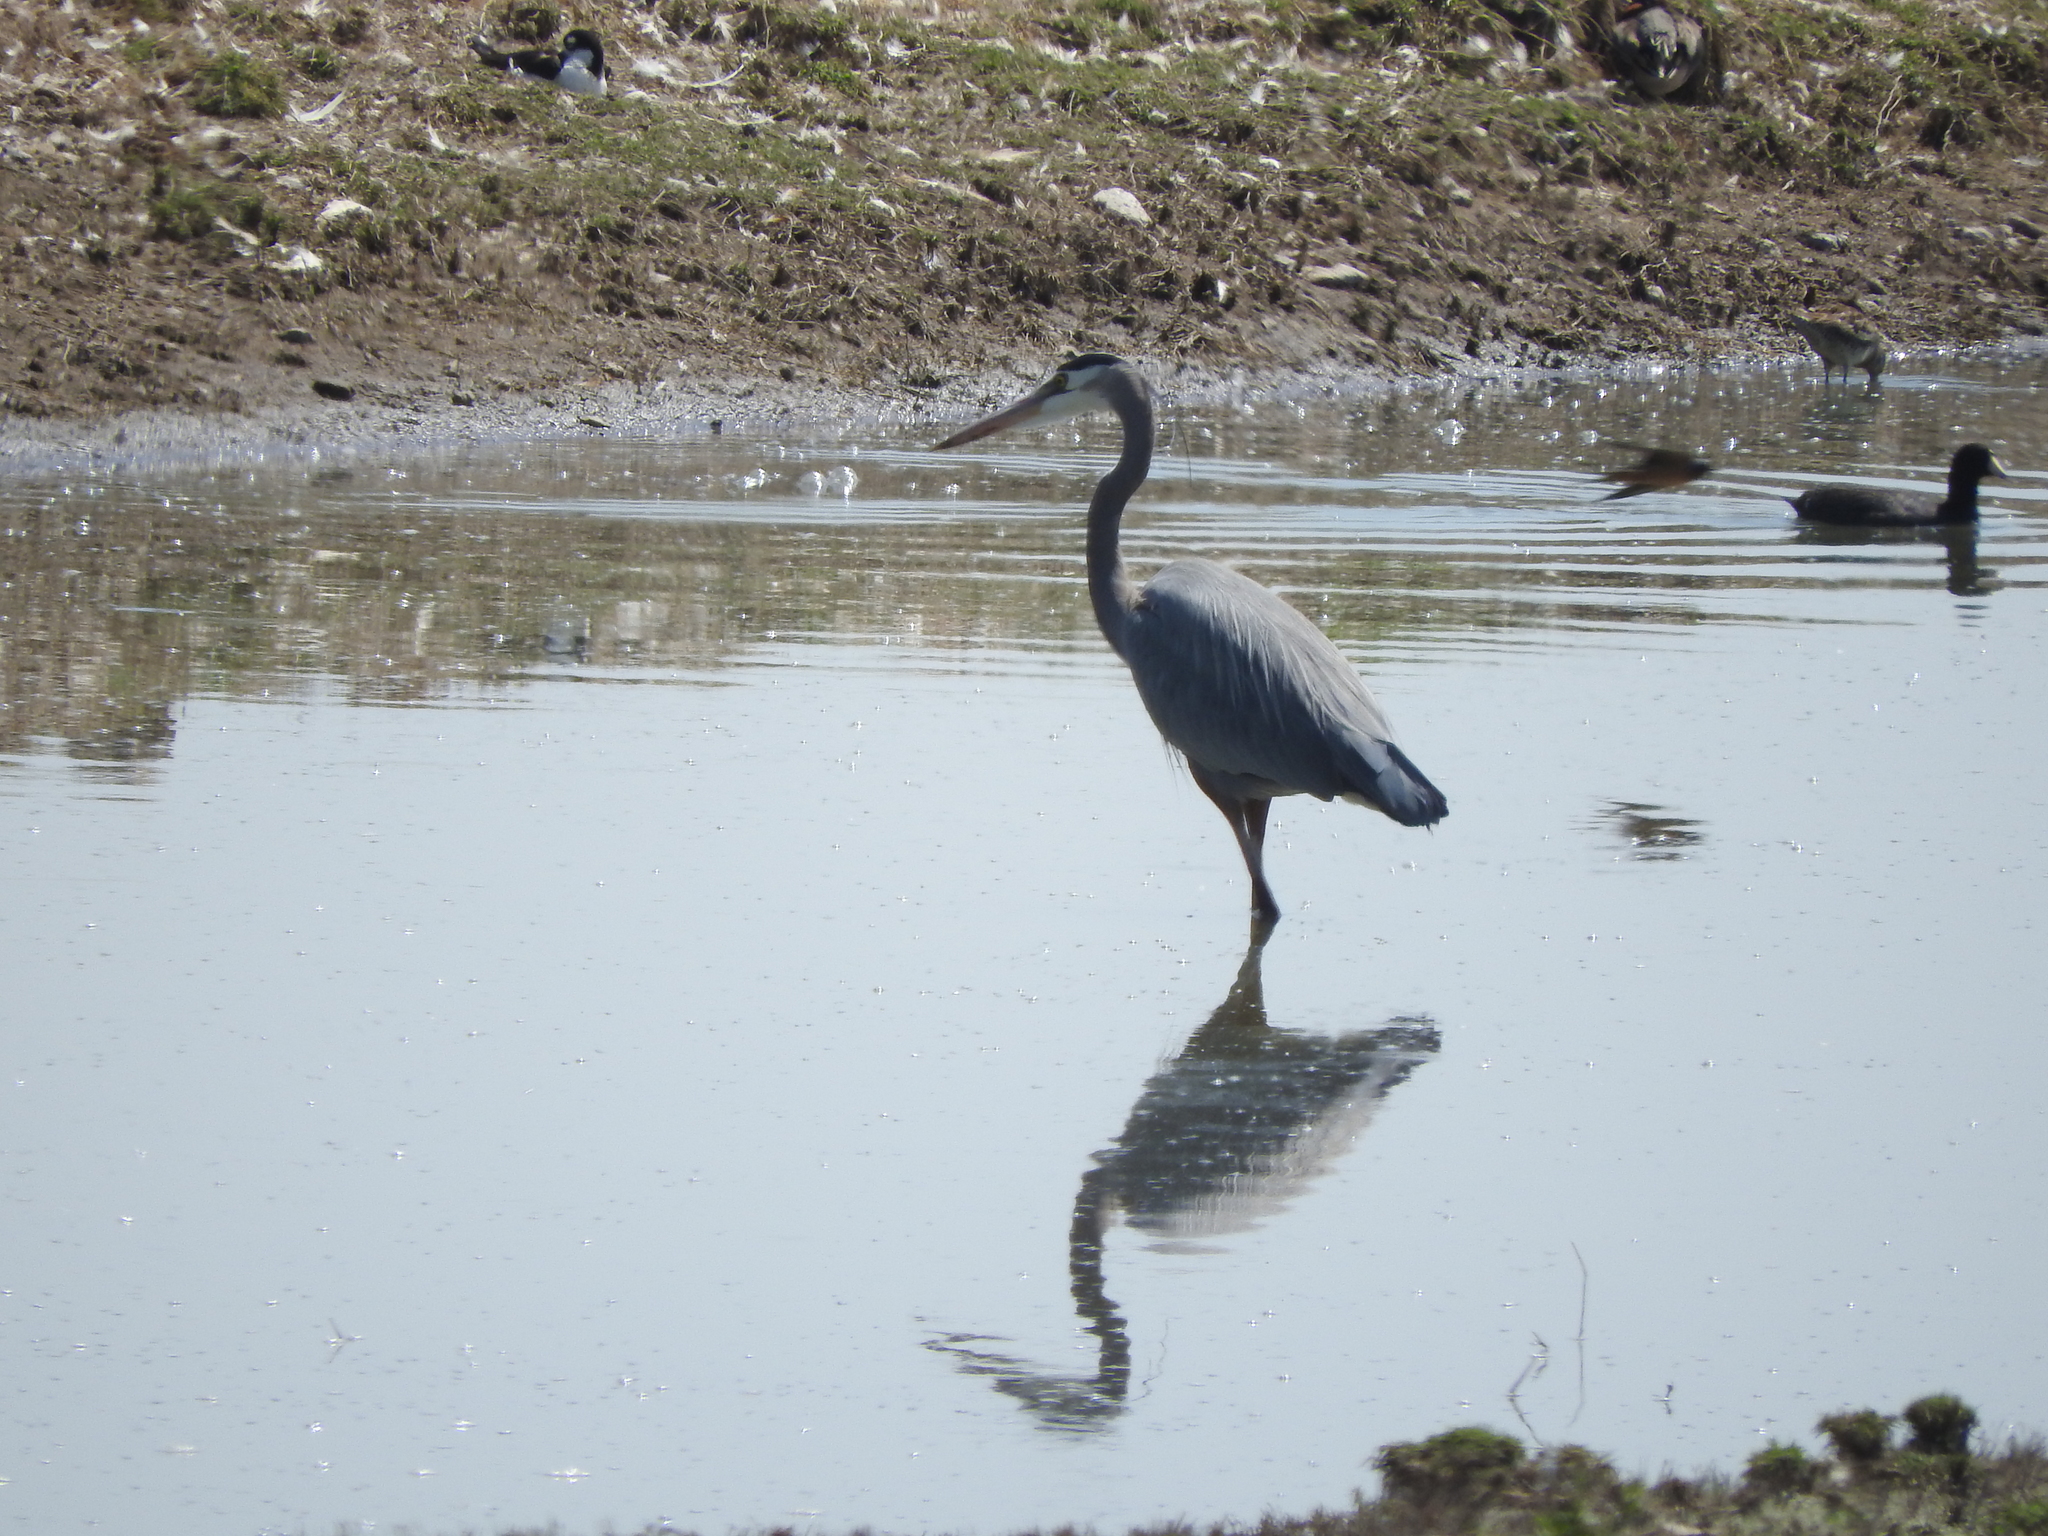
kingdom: Animalia
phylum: Chordata
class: Aves
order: Pelecaniformes
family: Ardeidae
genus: Ardea
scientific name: Ardea herodias
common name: Great blue heron
